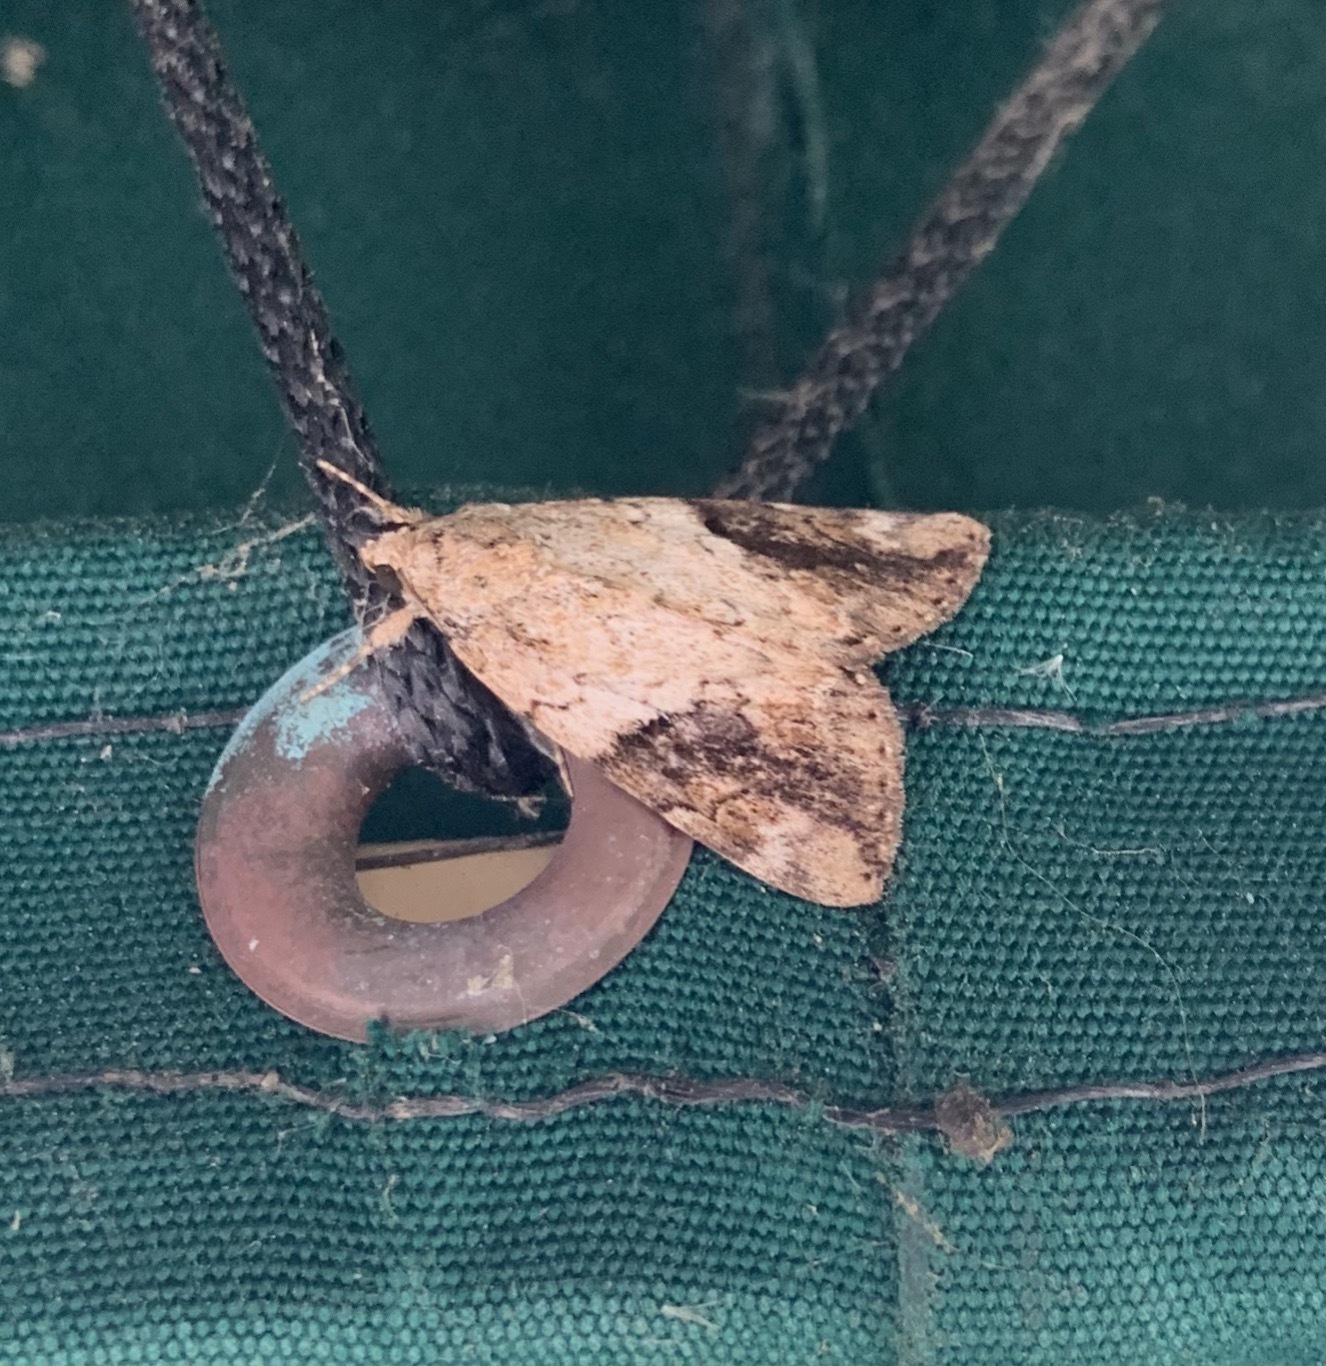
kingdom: Animalia
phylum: Arthropoda
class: Insecta
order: Lepidoptera
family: Erebidae
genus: Catocala
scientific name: Catocala micronympha
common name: Little nymph underwing
